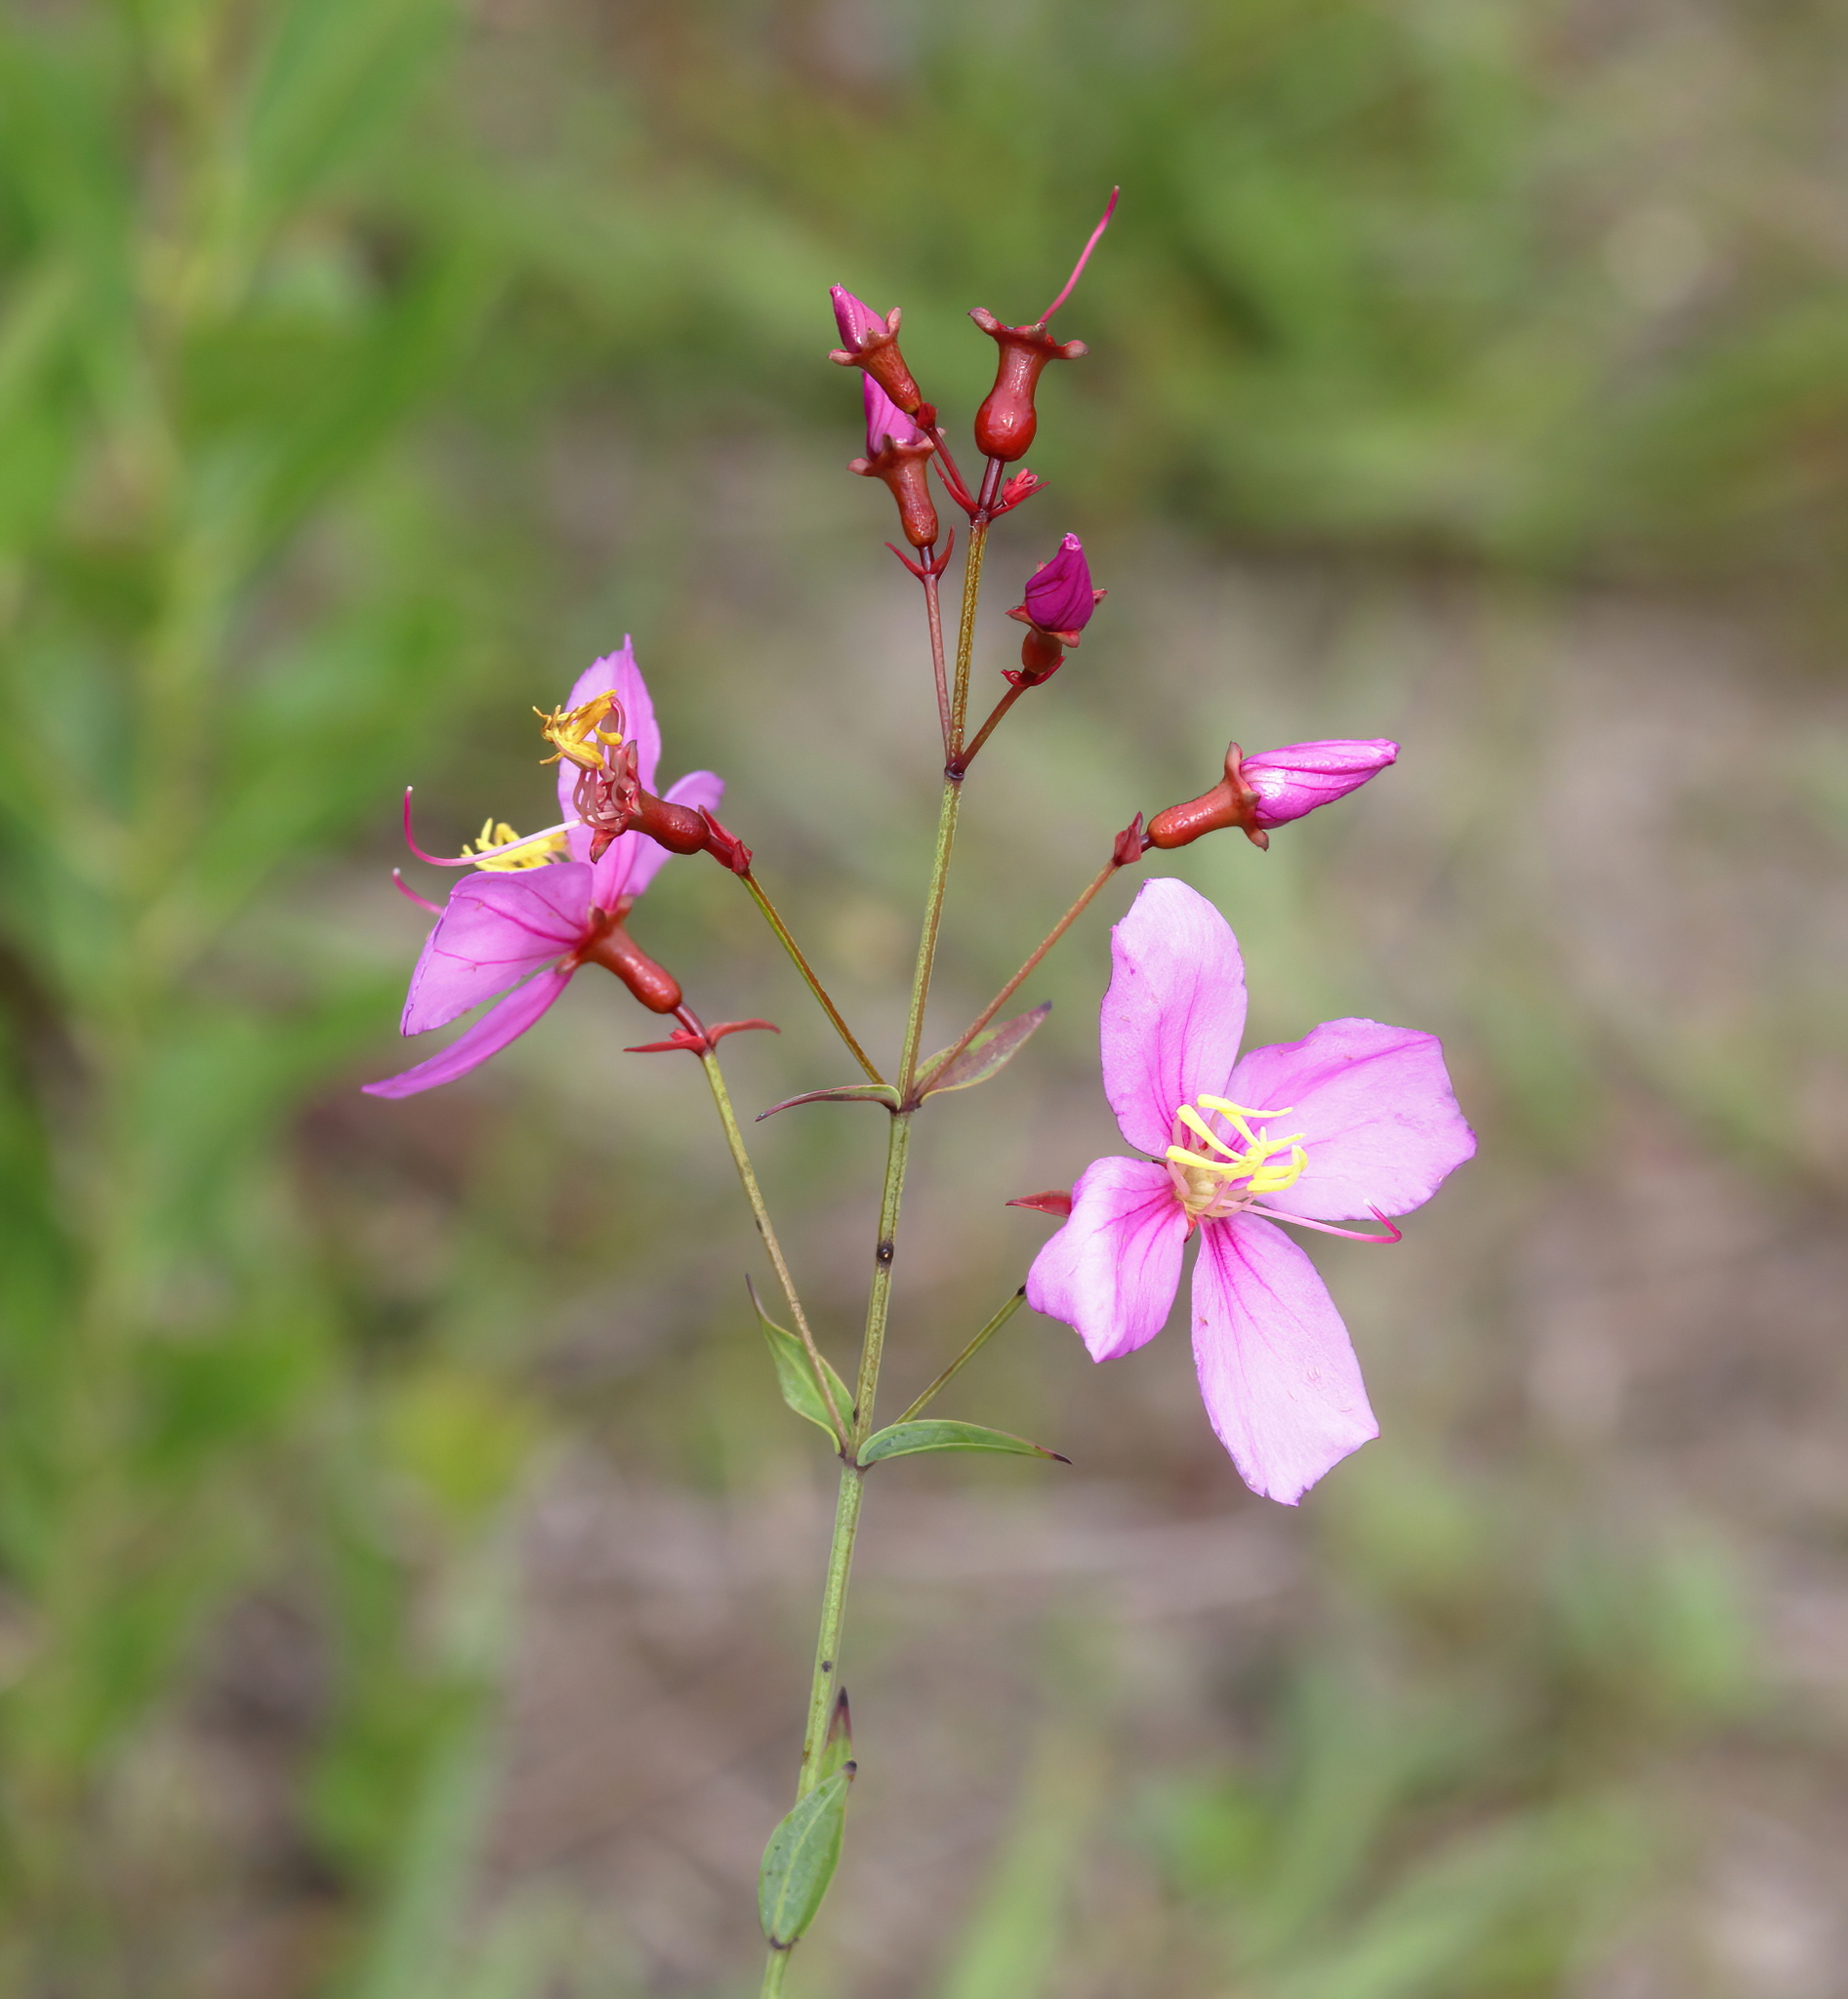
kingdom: Plantae
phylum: Tracheophyta
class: Magnoliopsida
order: Myrtales
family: Melastomataceae
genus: Rhexia
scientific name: Rhexia alifanus
